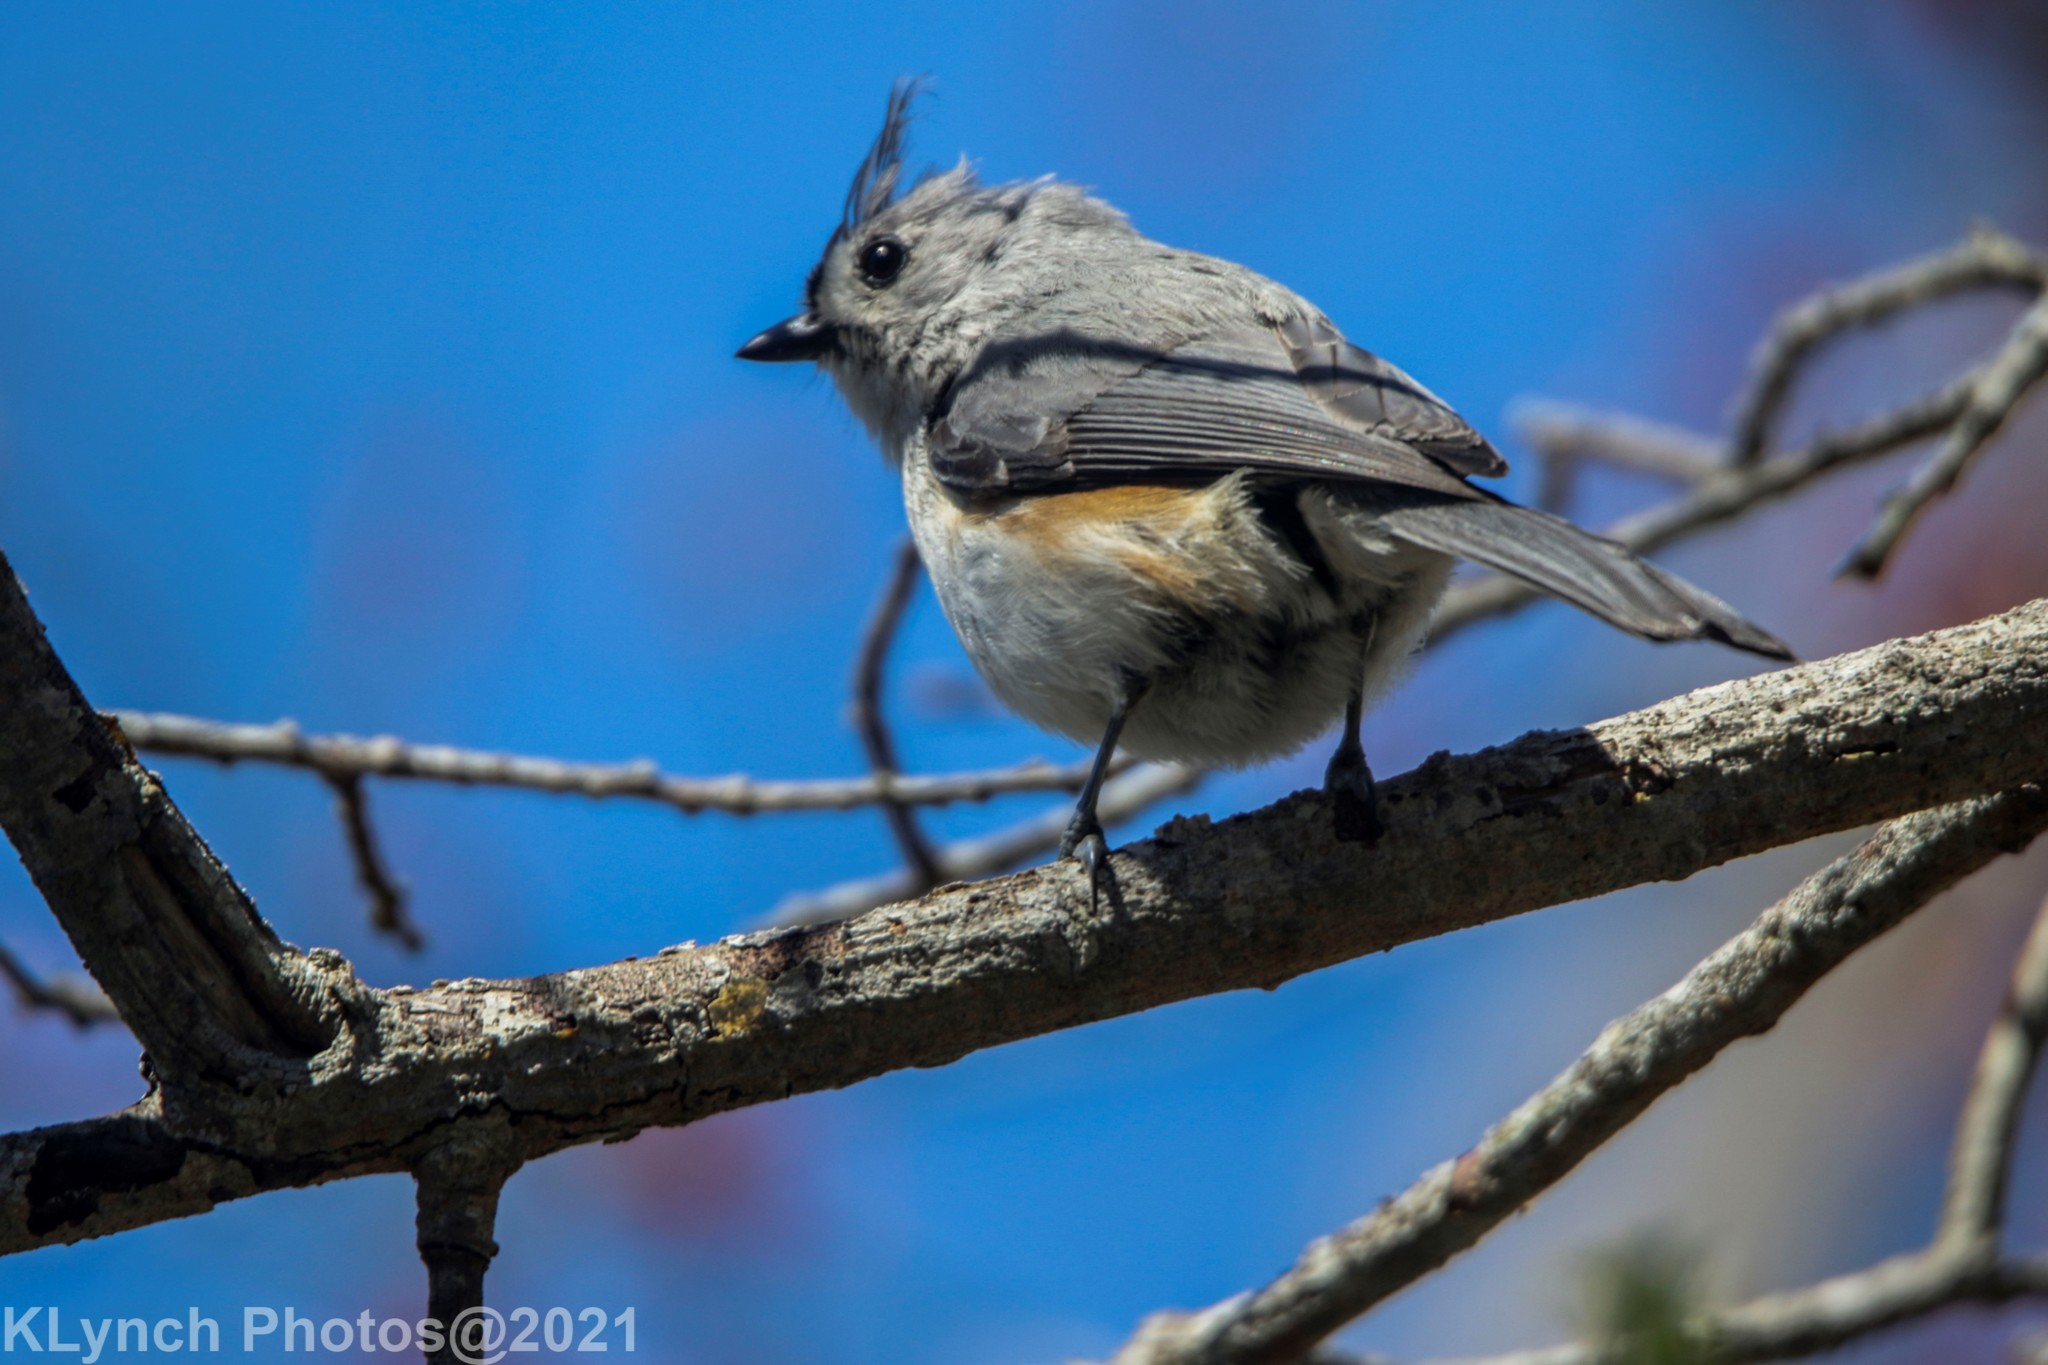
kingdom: Animalia
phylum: Chordata
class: Aves
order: Passeriformes
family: Paridae
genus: Baeolophus
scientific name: Baeolophus bicolor
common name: Tufted titmouse
